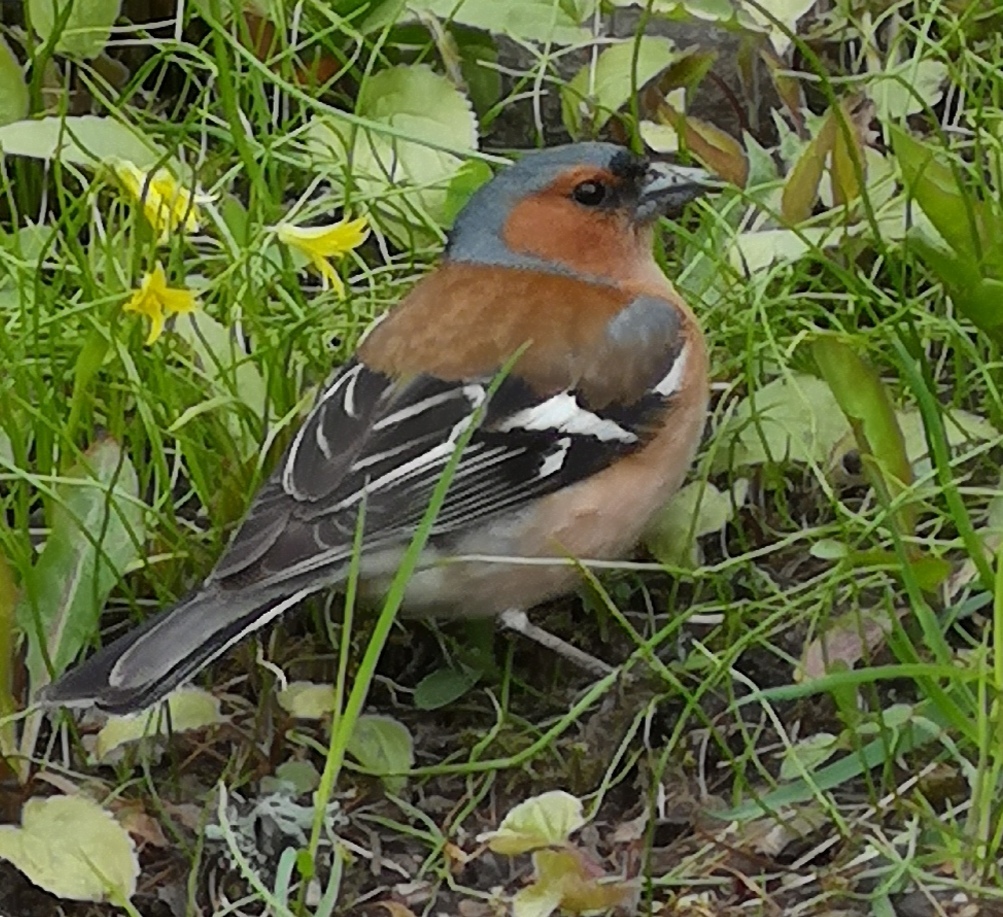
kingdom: Animalia
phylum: Chordata
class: Aves
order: Passeriformes
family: Fringillidae
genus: Fringilla
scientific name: Fringilla coelebs
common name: Common chaffinch
